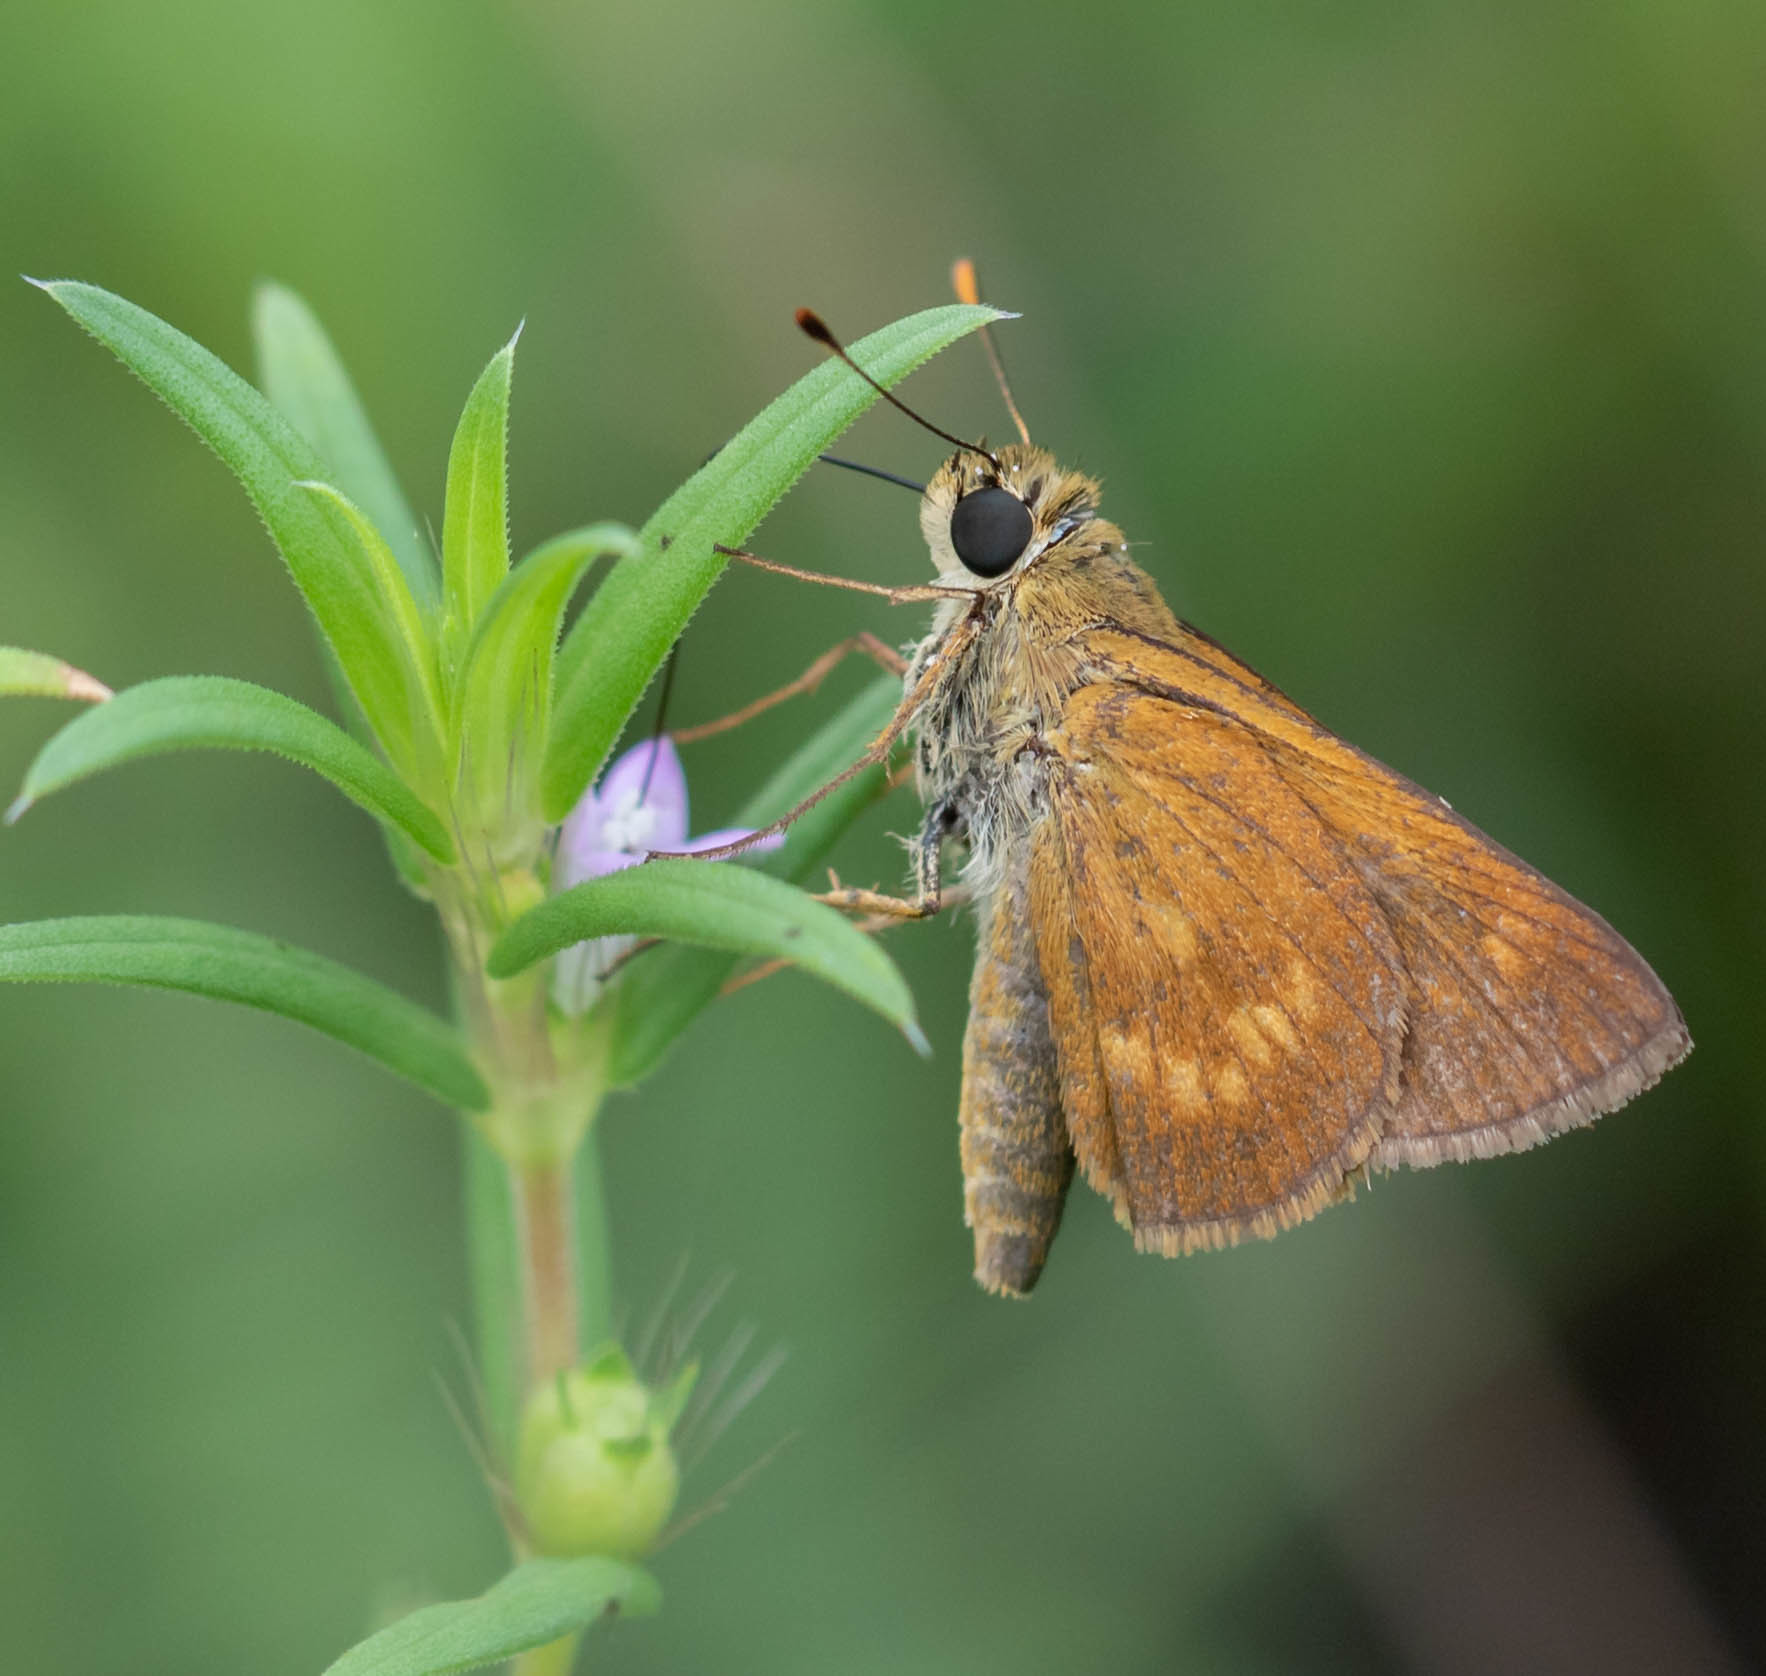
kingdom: Animalia
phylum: Arthropoda
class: Insecta
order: Lepidoptera
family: Hesperiidae
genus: Polites
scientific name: Polites otho
